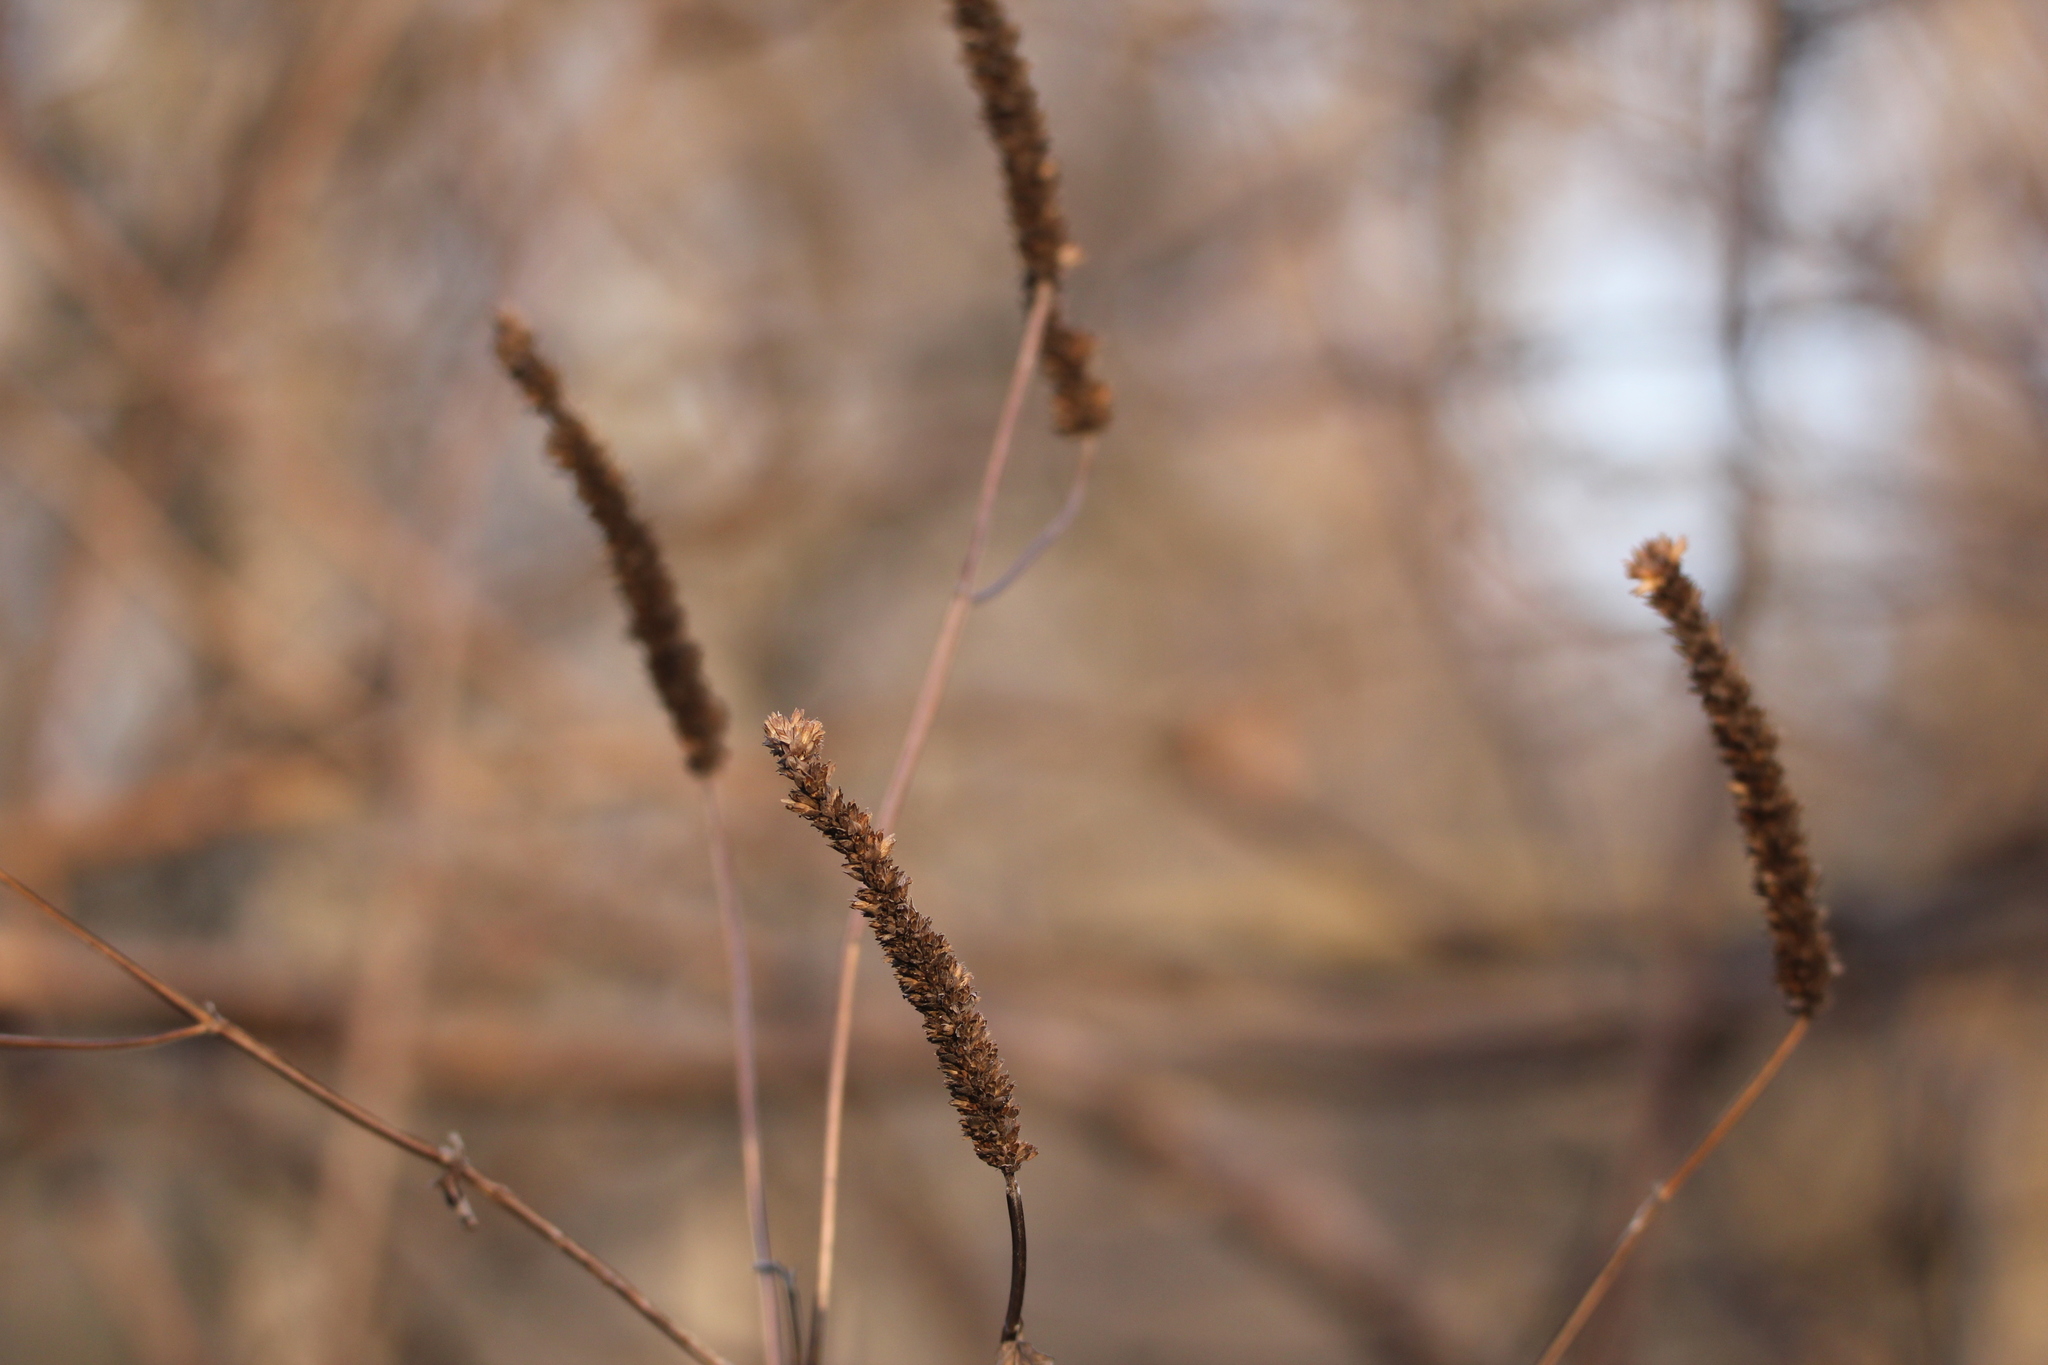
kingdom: Plantae
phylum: Tracheophyta
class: Magnoliopsida
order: Lamiales
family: Lamiaceae
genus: Agastache
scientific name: Agastache nepetoides
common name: Catnip giant hyssop
